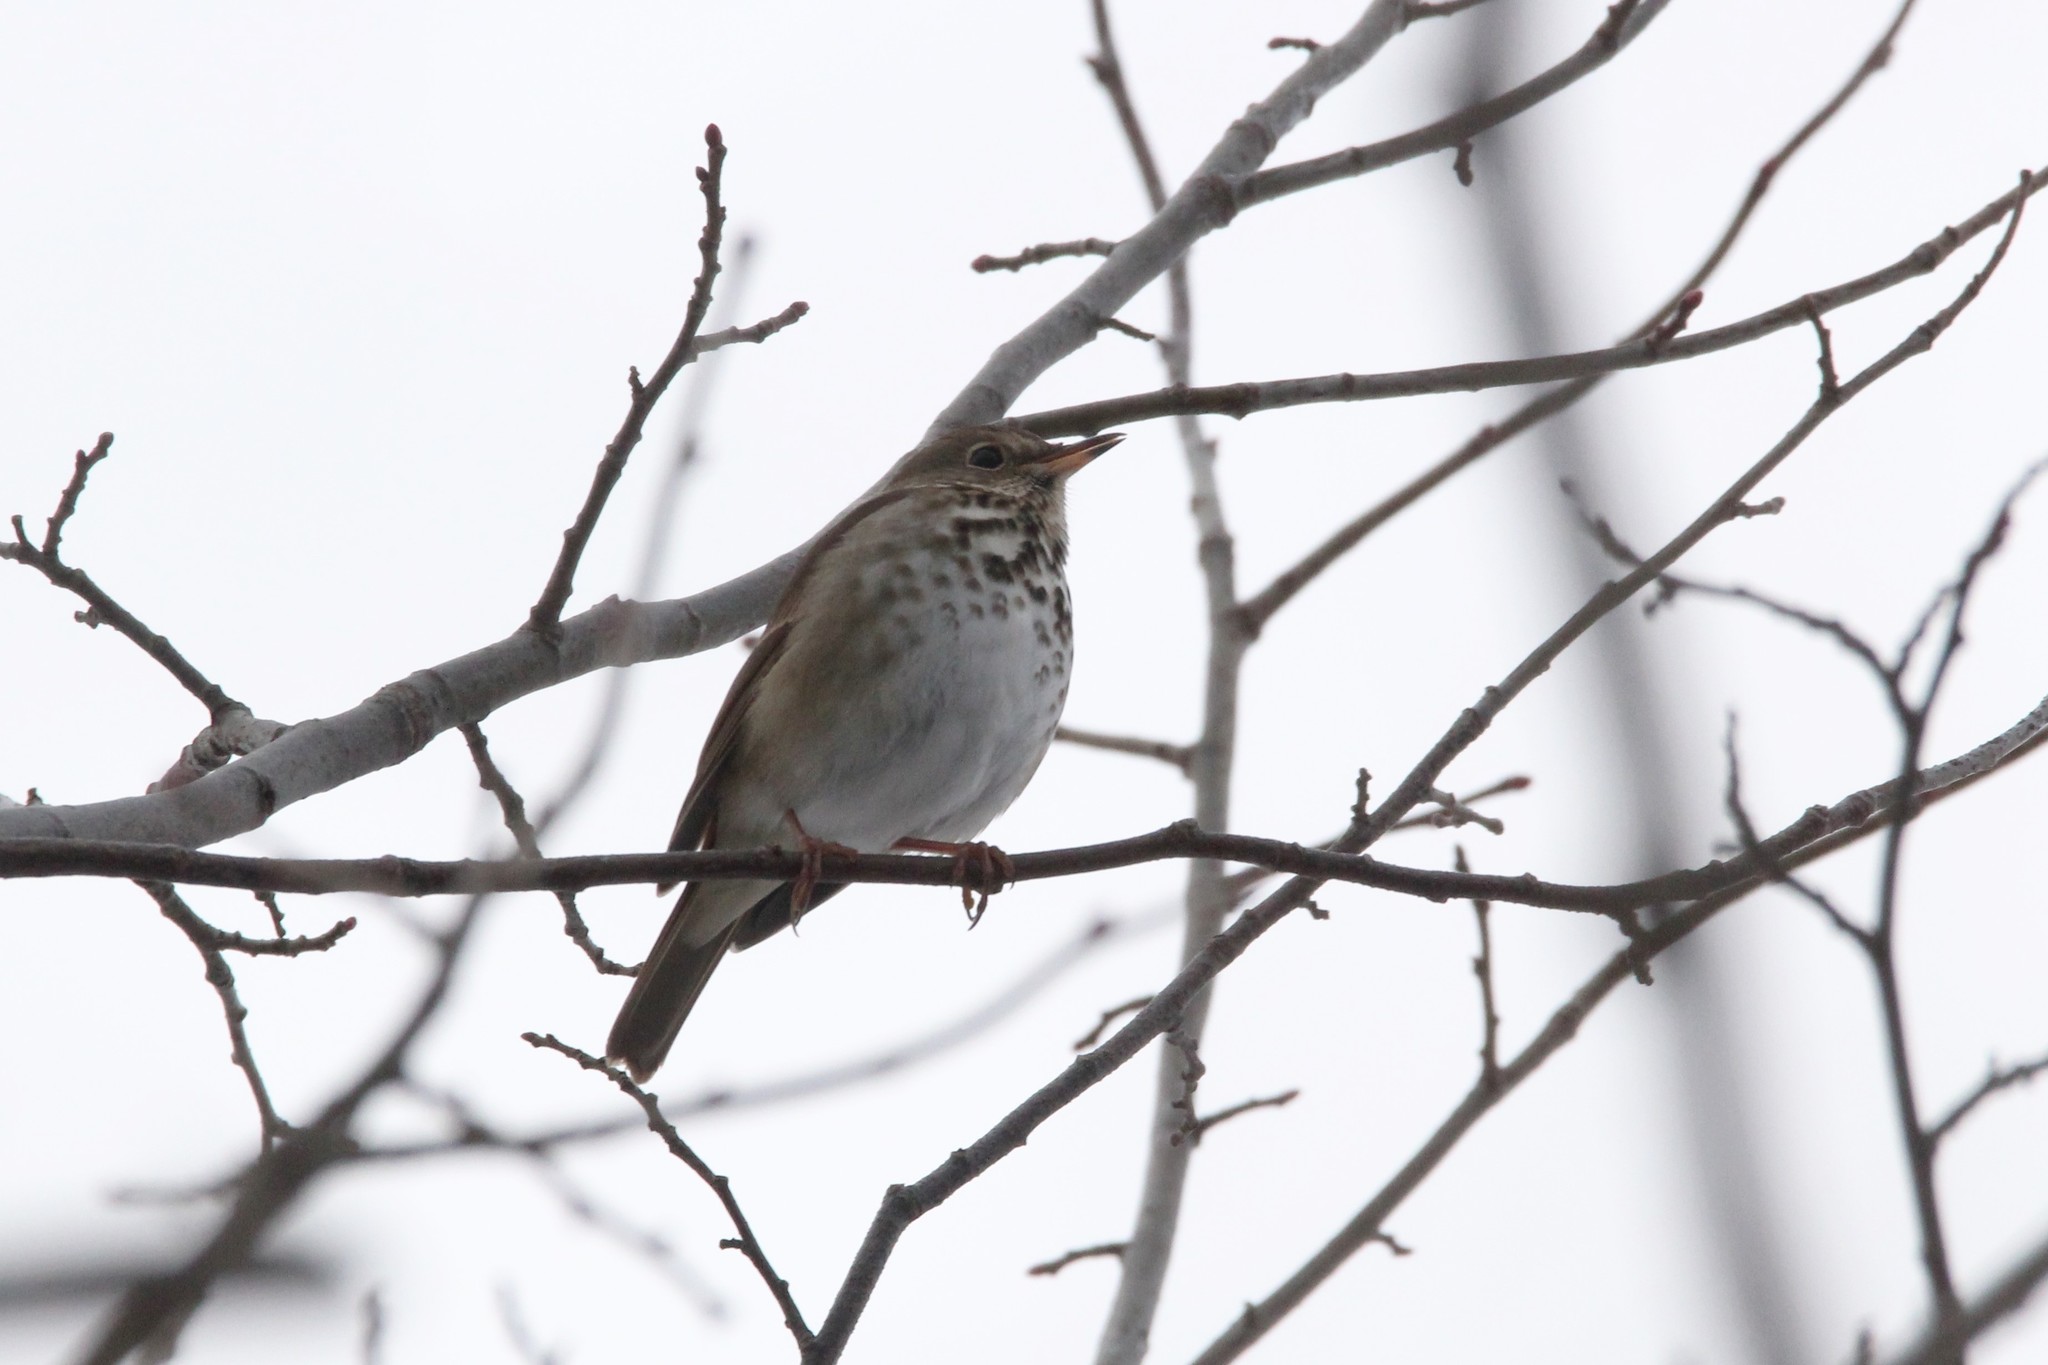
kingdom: Animalia
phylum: Chordata
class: Aves
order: Passeriformes
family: Turdidae
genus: Catharus
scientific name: Catharus guttatus
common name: Hermit thrush
